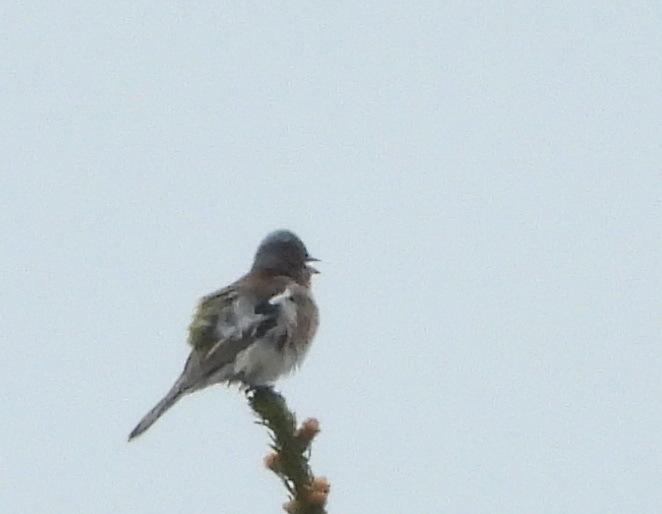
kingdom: Animalia
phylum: Chordata
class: Aves
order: Passeriformes
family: Fringillidae
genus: Fringilla
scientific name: Fringilla coelebs
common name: Common chaffinch
